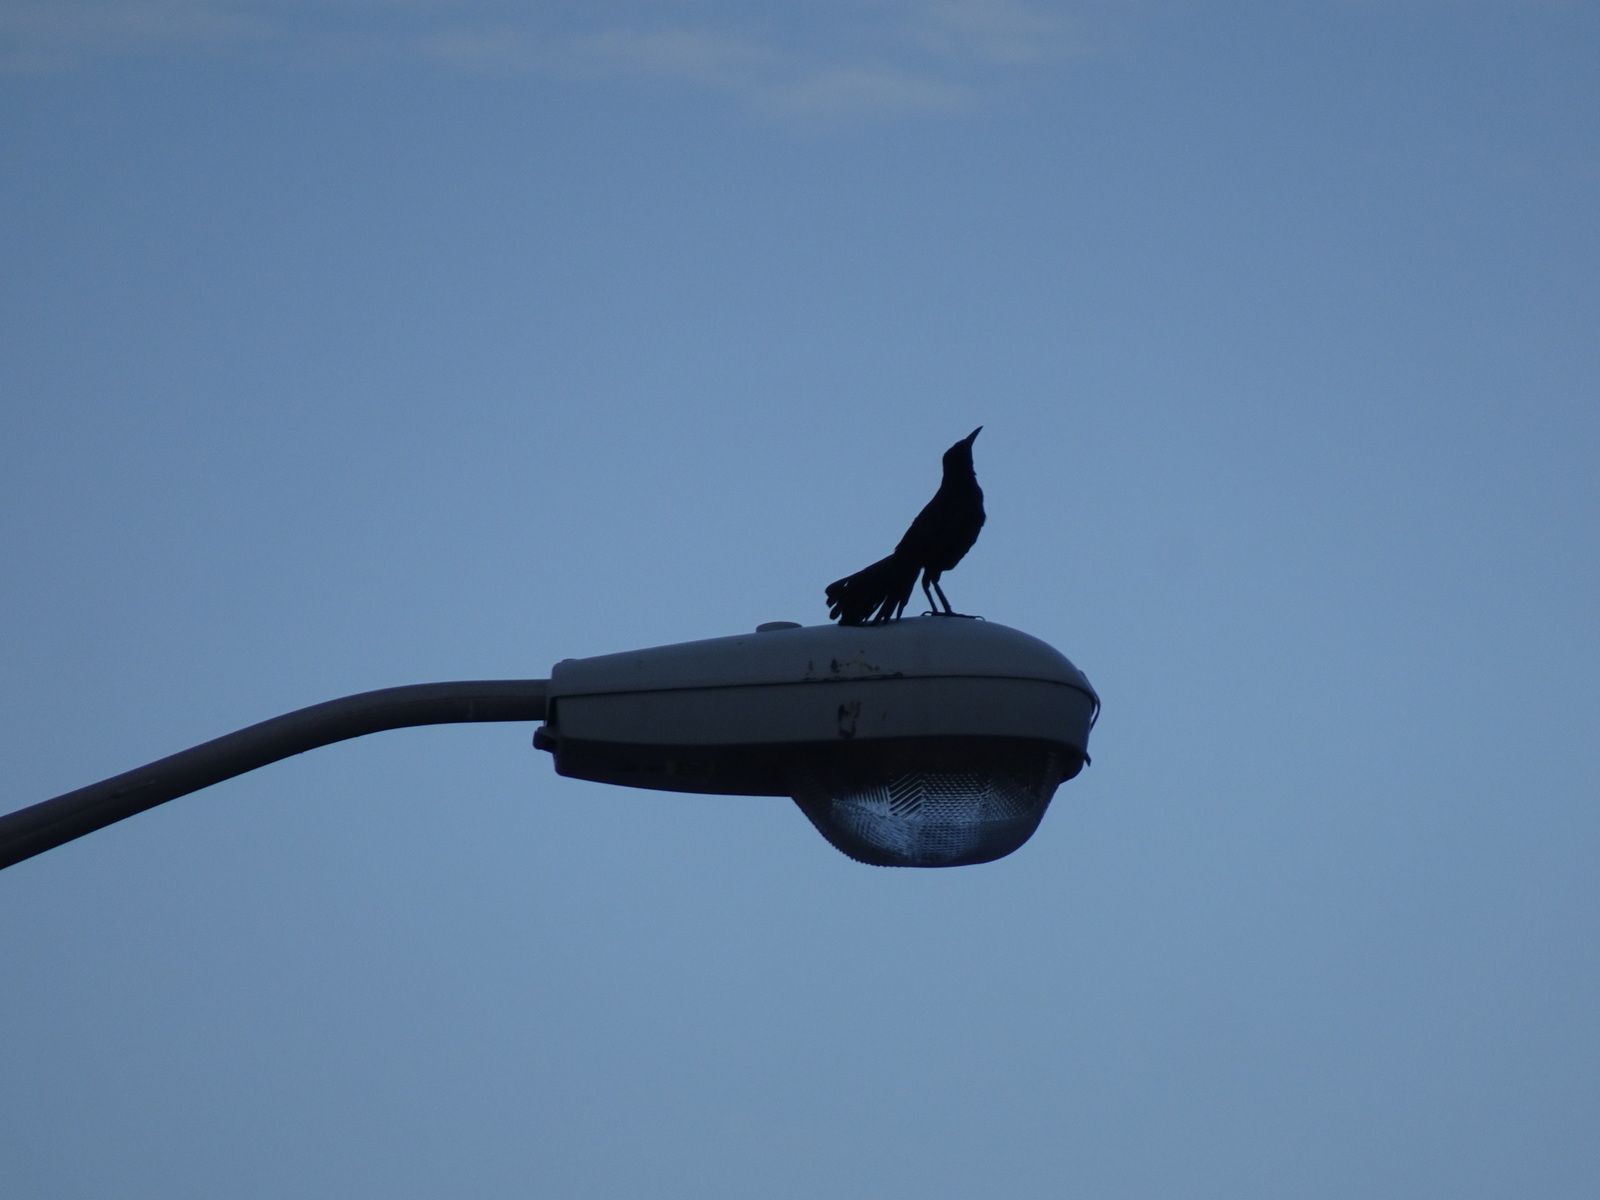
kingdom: Animalia
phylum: Chordata
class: Aves
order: Passeriformes
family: Icteridae
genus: Quiscalus
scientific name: Quiscalus major
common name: Boat-tailed grackle
